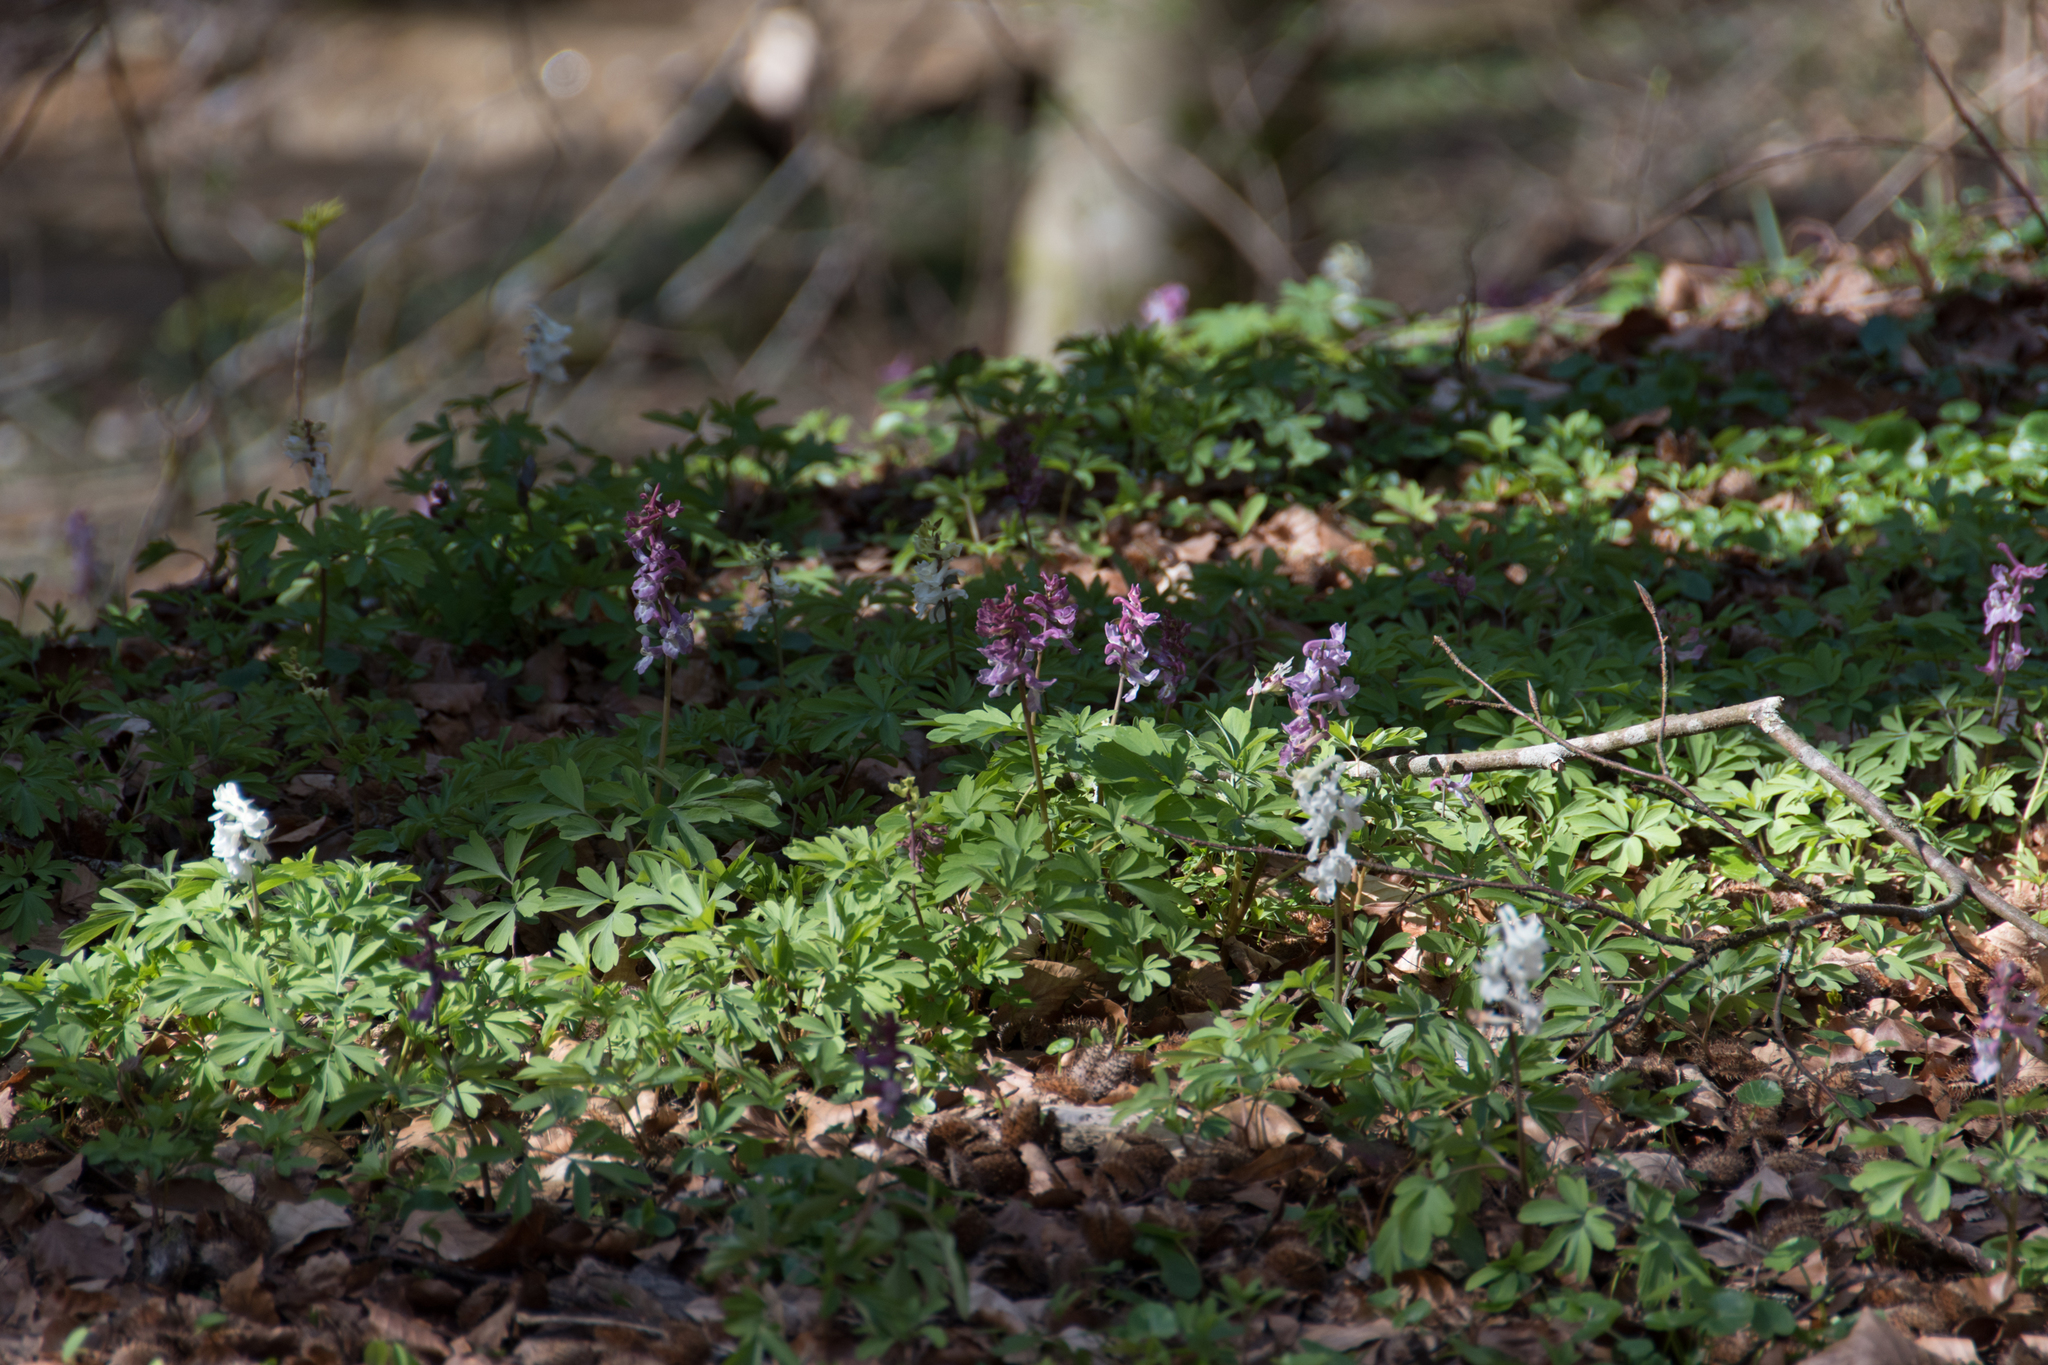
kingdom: Plantae
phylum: Tracheophyta
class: Magnoliopsida
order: Ranunculales
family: Papaveraceae
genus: Corydalis
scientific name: Corydalis cava
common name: Hollowroot
